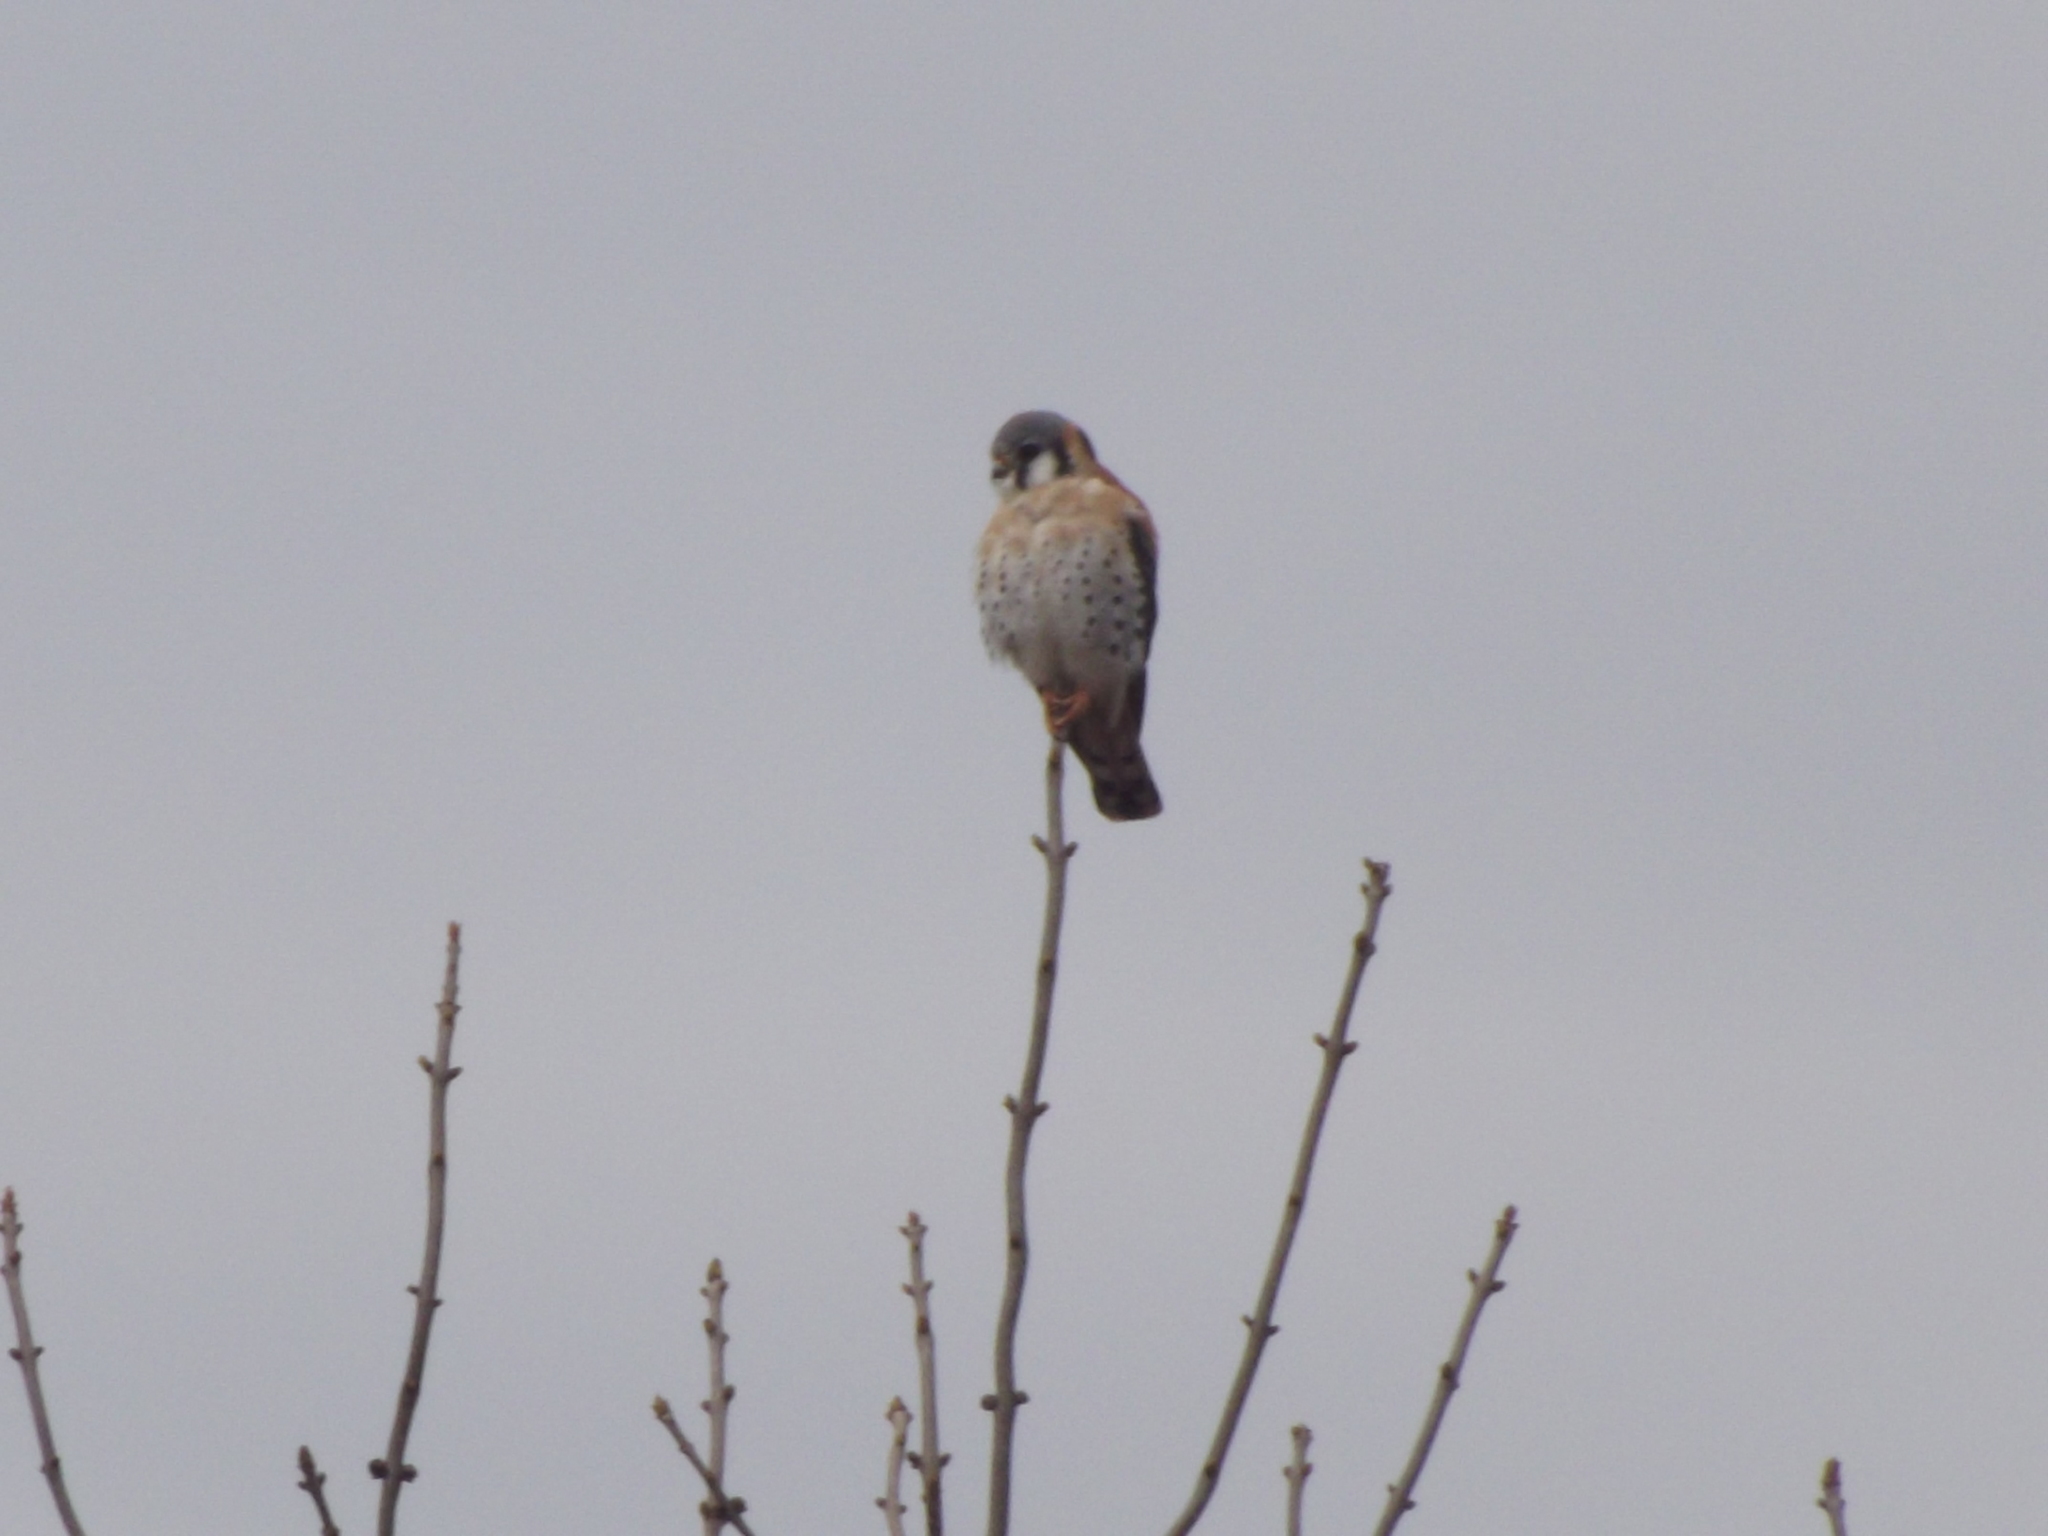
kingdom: Animalia
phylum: Chordata
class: Aves
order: Falconiformes
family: Falconidae
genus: Falco
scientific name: Falco sparverius
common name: American kestrel
